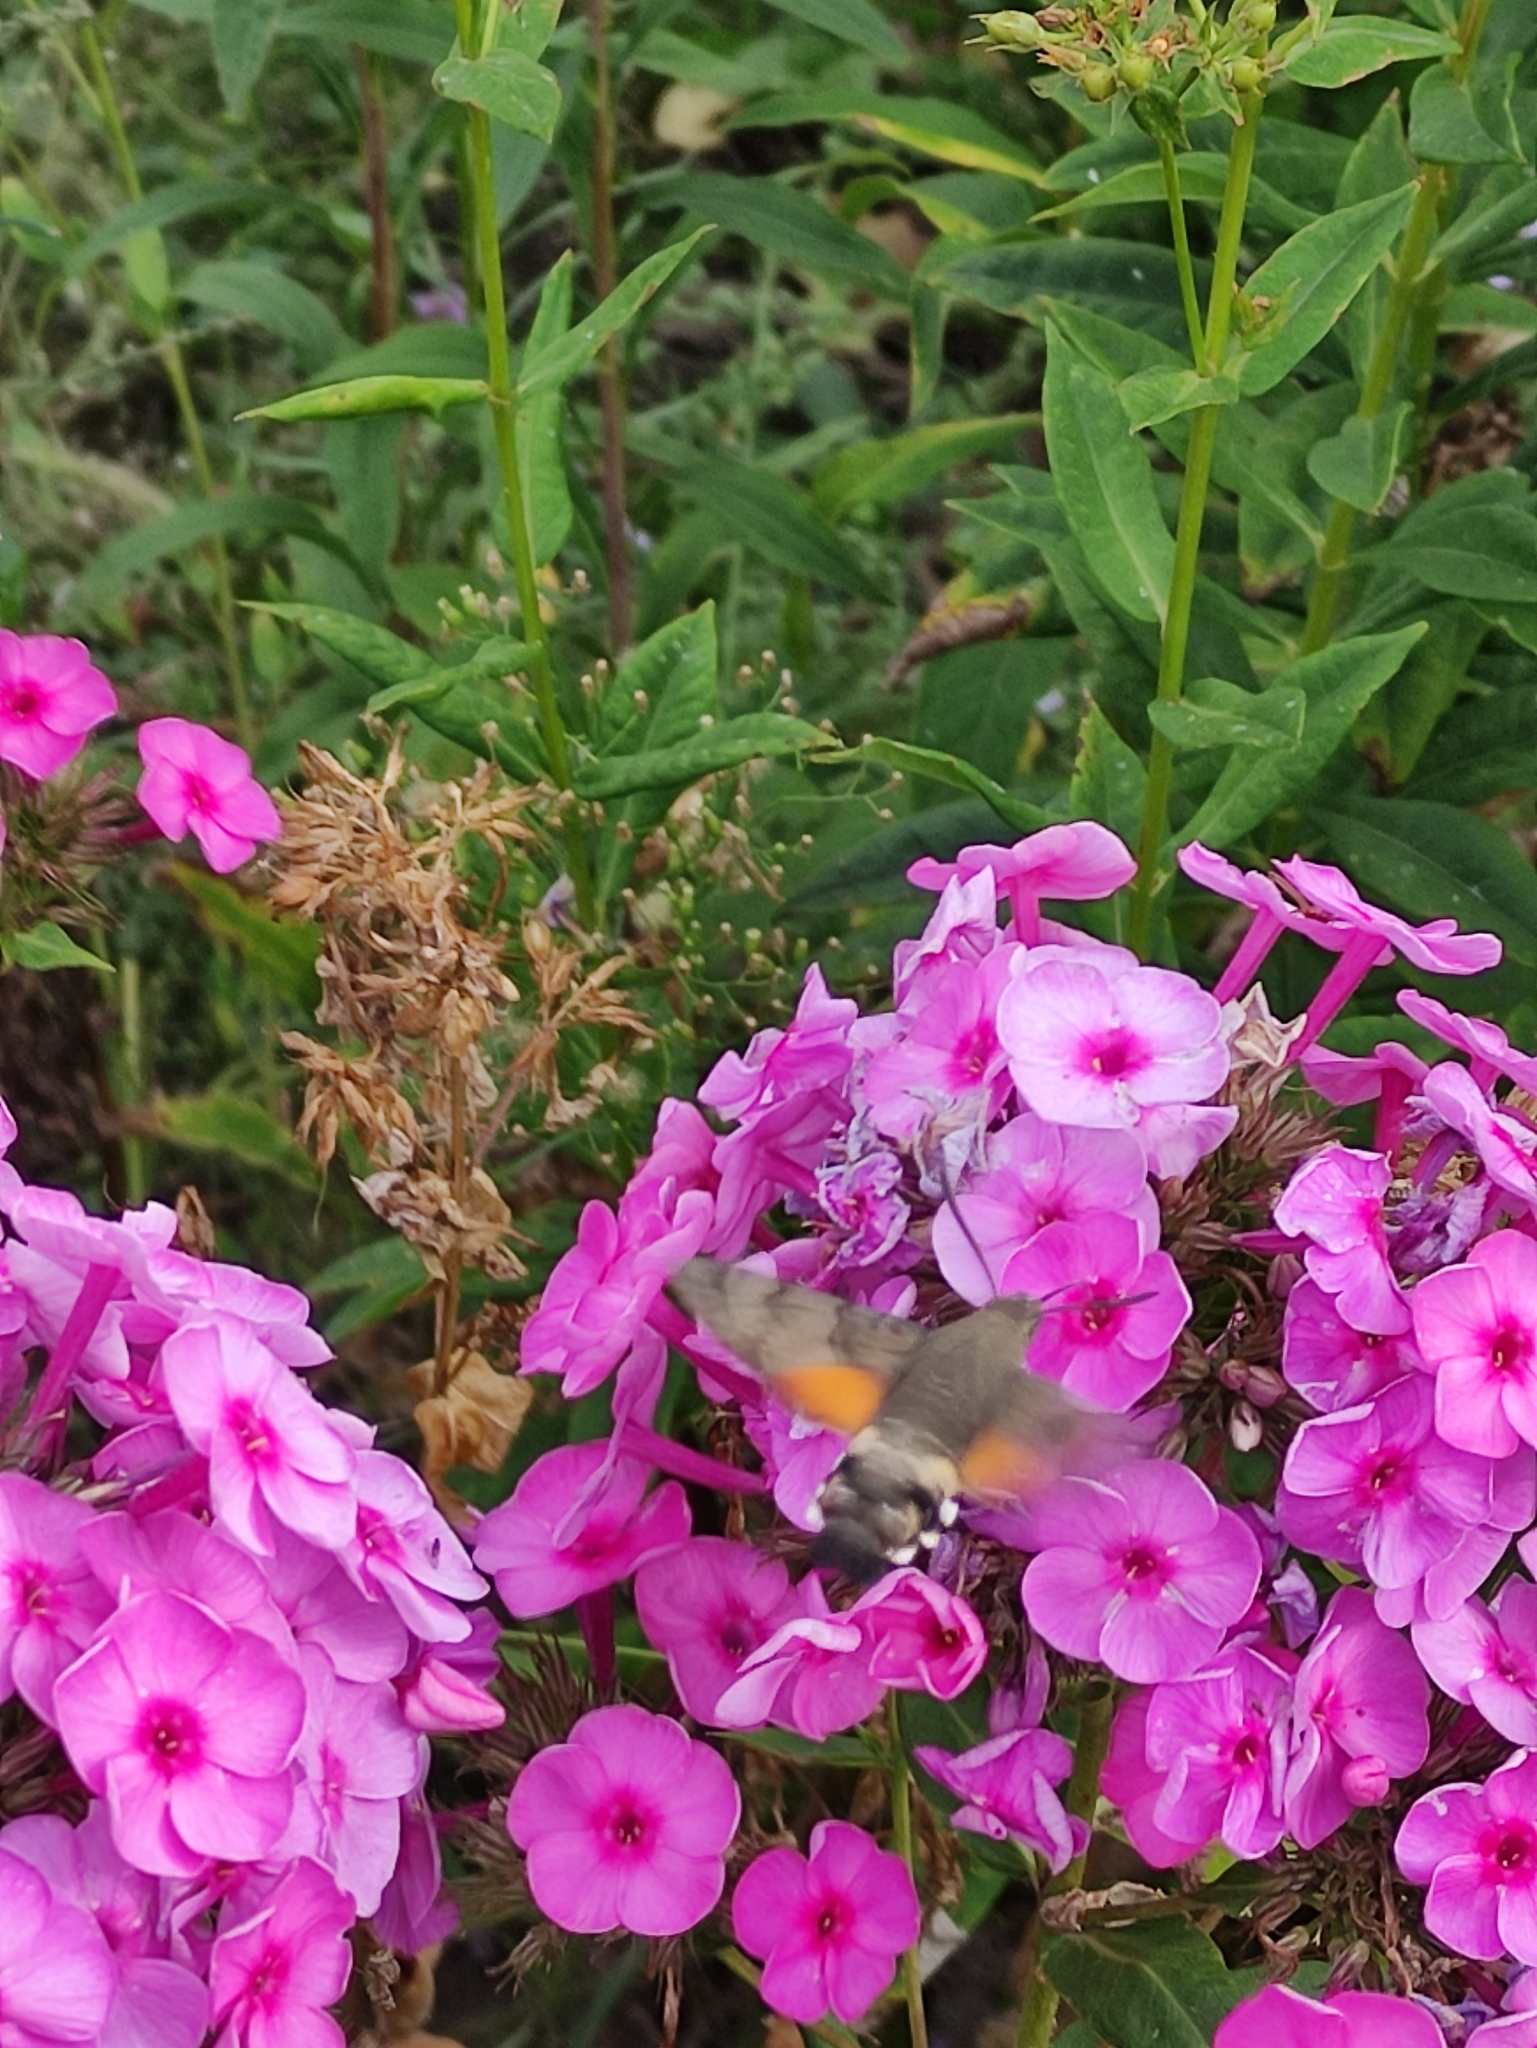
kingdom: Animalia
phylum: Arthropoda
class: Insecta
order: Lepidoptera
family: Sphingidae
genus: Macroglossum
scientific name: Macroglossum stellatarum
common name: Humming-bird hawk-moth
